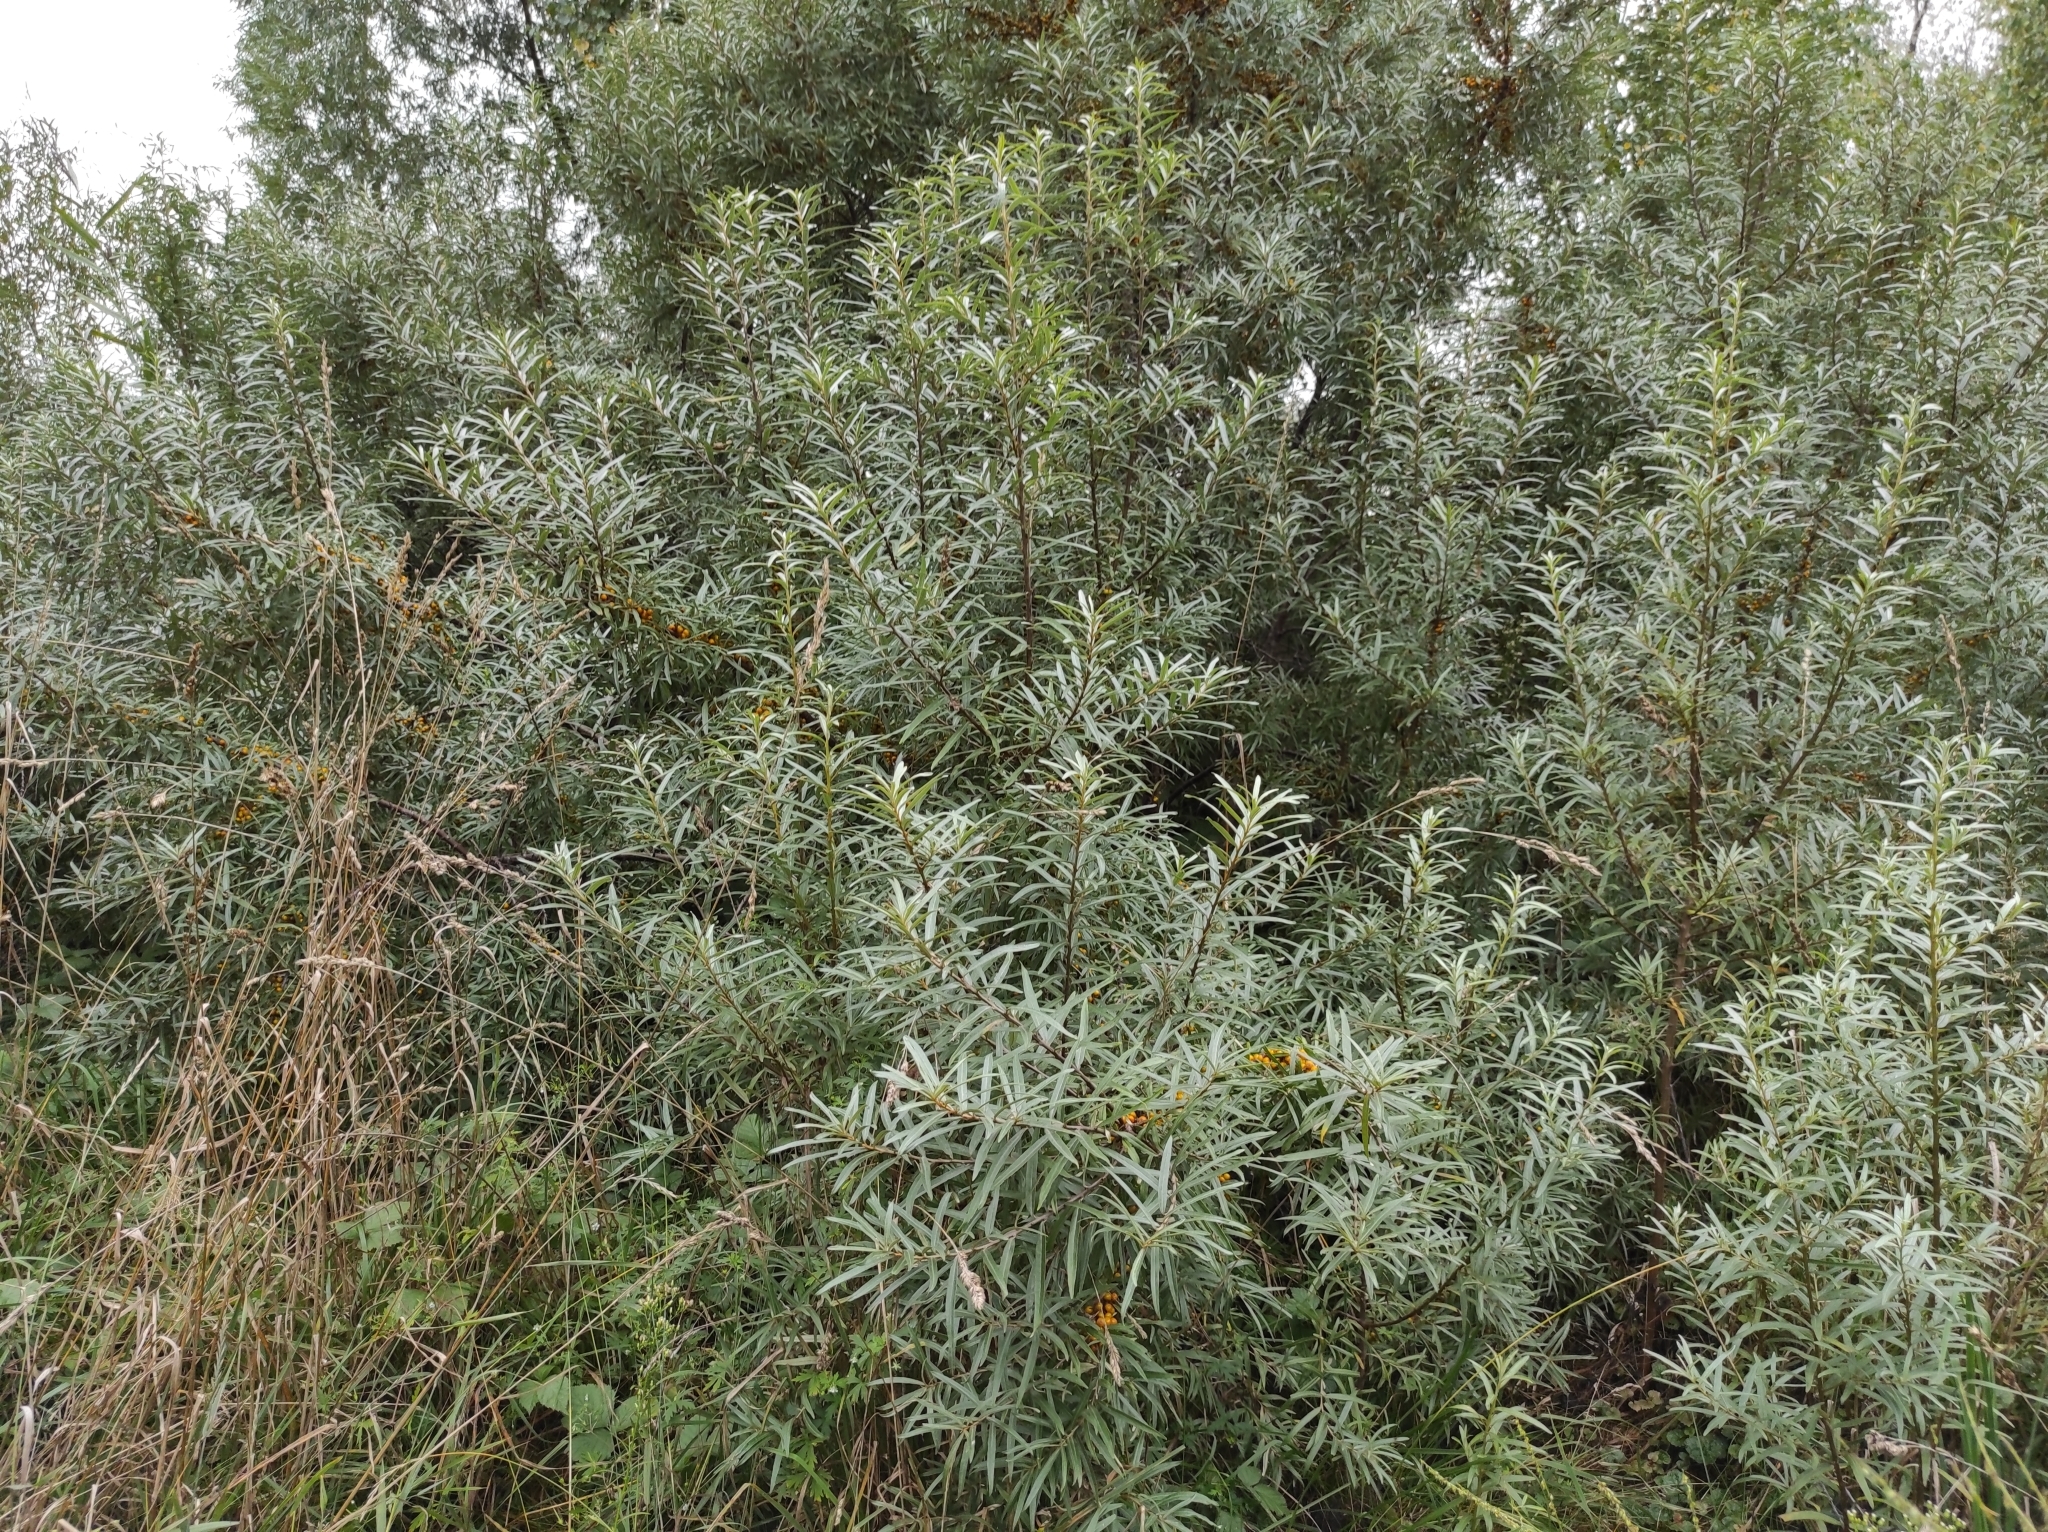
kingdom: Plantae
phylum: Tracheophyta
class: Magnoliopsida
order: Rosales
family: Elaeagnaceae
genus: Hippophae
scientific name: Hippophae rhamnoides
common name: Sea-buckthorn
